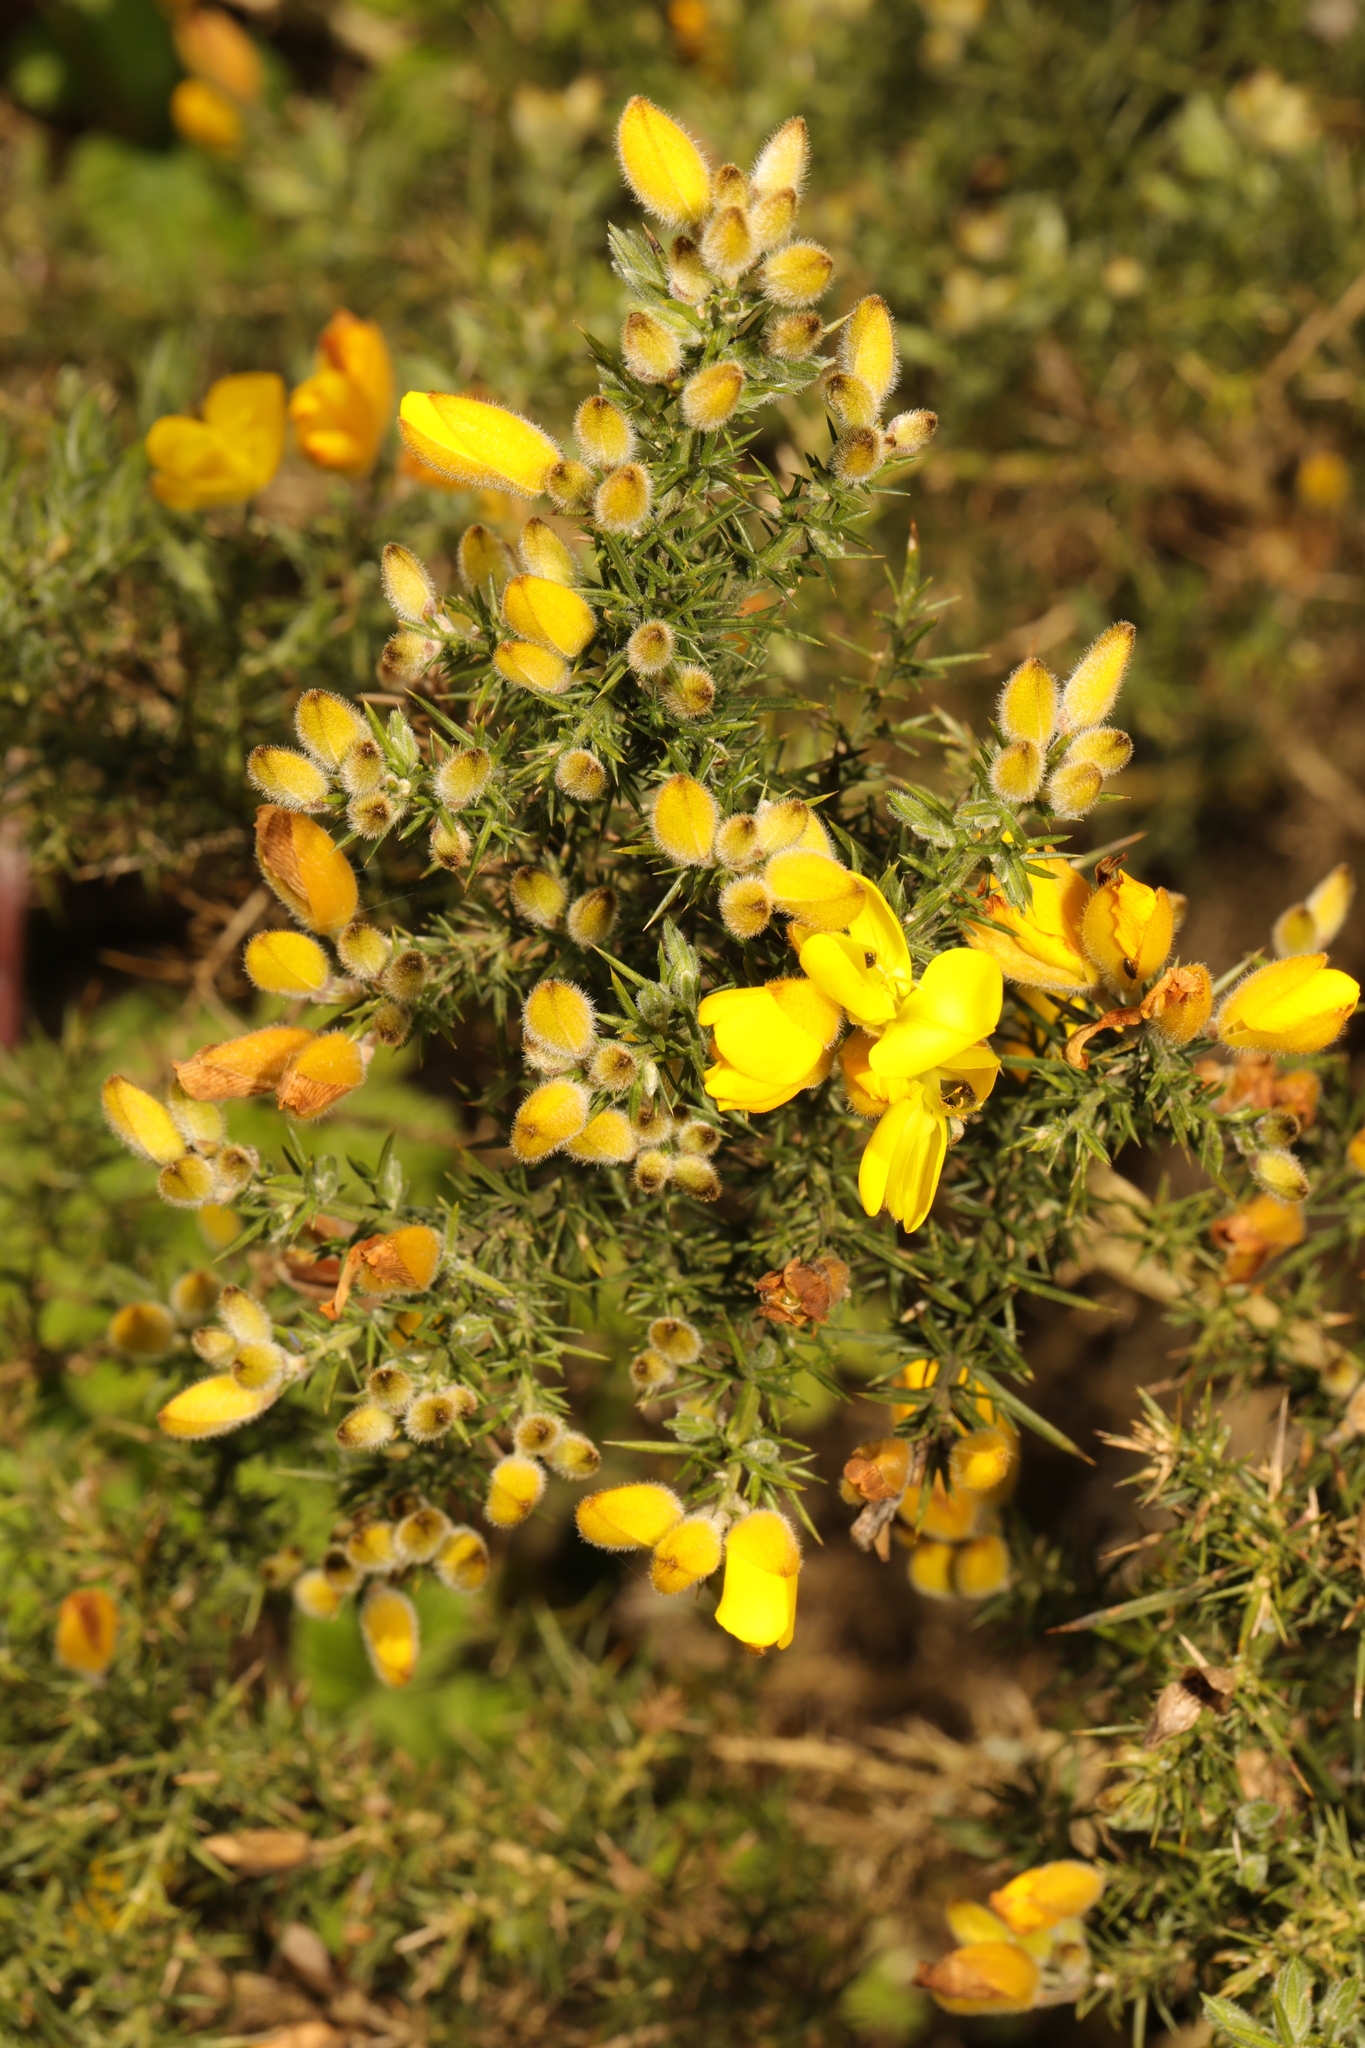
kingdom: Plantae
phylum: Tracheophyta
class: Magnoliopsida
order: Fabales
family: Fabaceae
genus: Ulex
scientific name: Ulex europaeus
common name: Common gorse
